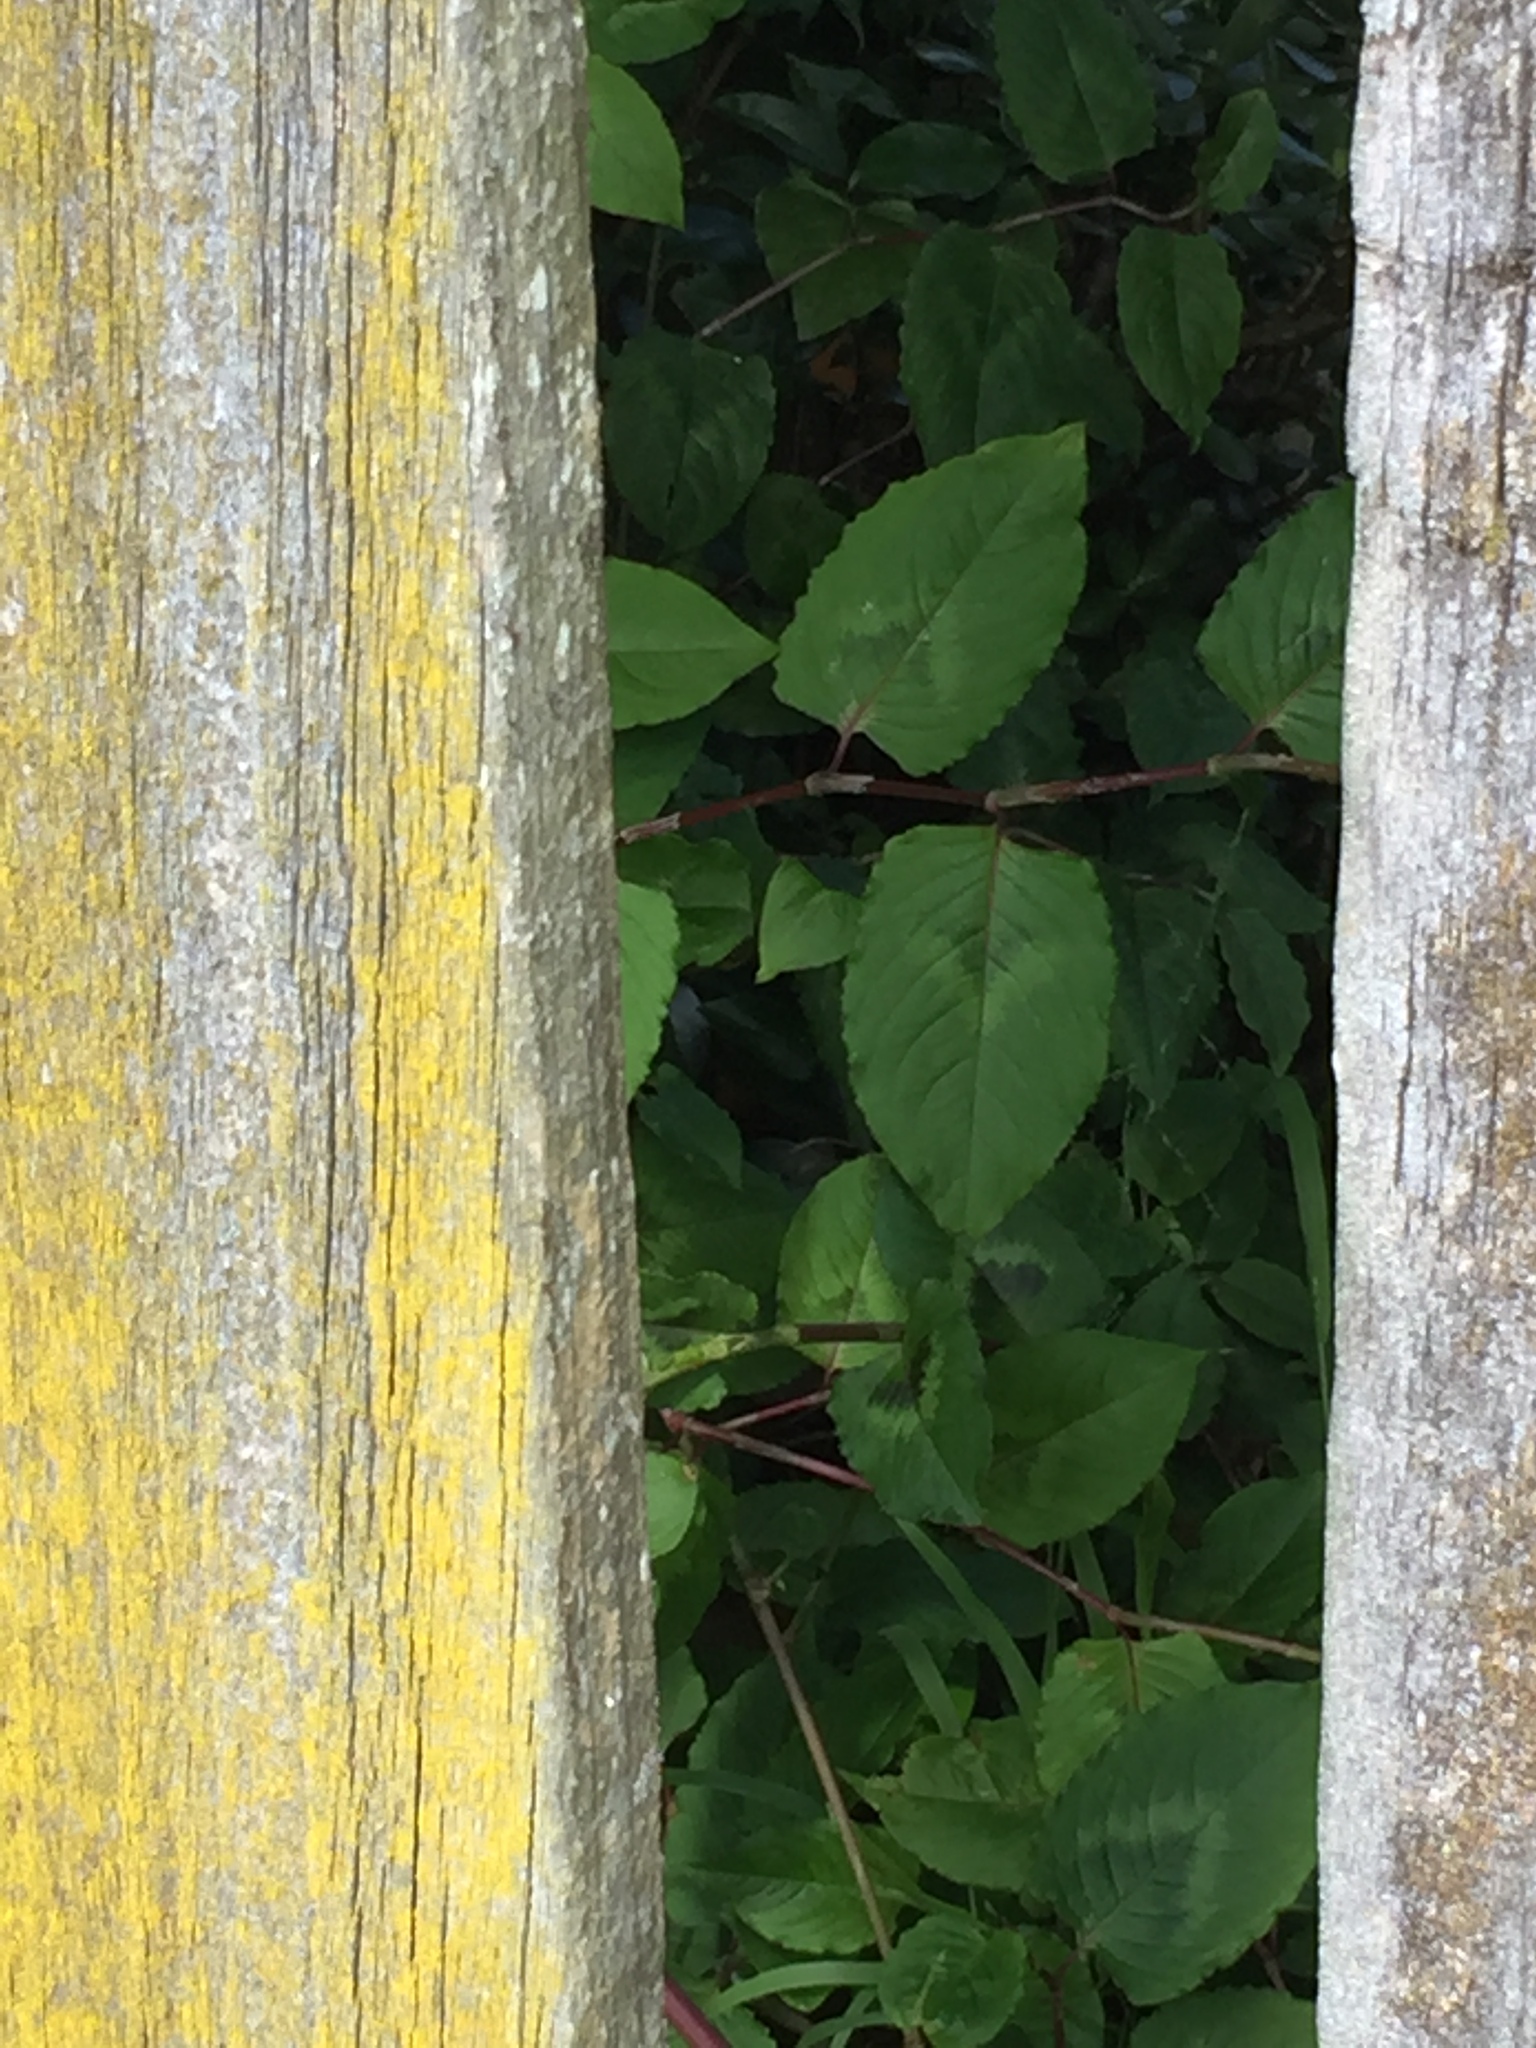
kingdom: Plantae
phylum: Tracheophyta
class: Magnoliopsida
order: Caryophyllales
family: Polygonaceae
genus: Persicaria
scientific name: Persicaria chinensis
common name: Chinese knotweed
